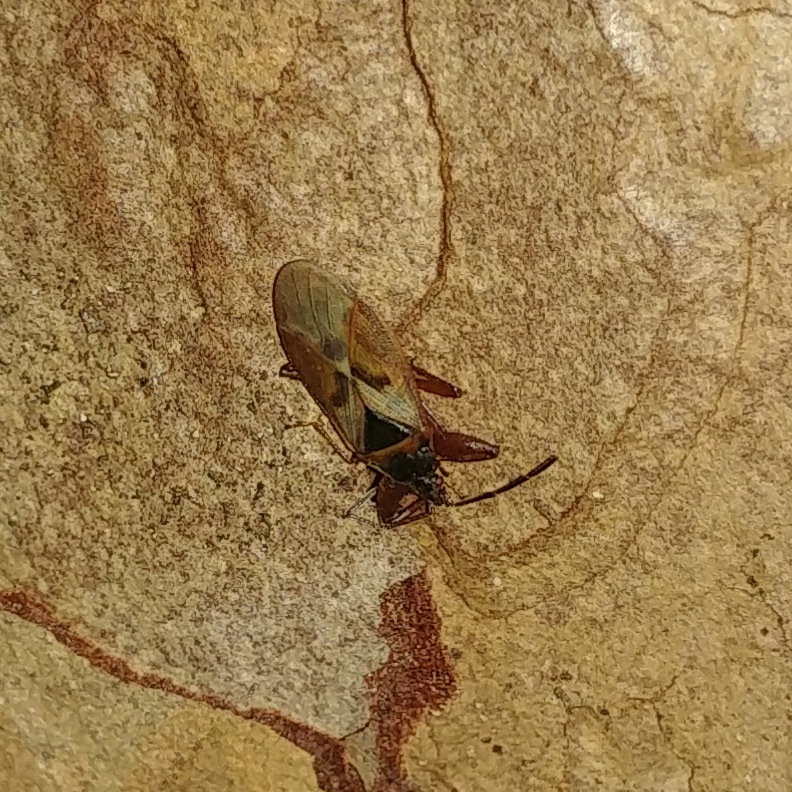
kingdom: Animalia
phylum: Arthropoda
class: Insecta
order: Hemiptera
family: Rhyparochromidae
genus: Gastrodes
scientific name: Gastrodes abietum
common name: Spruce cone bug
